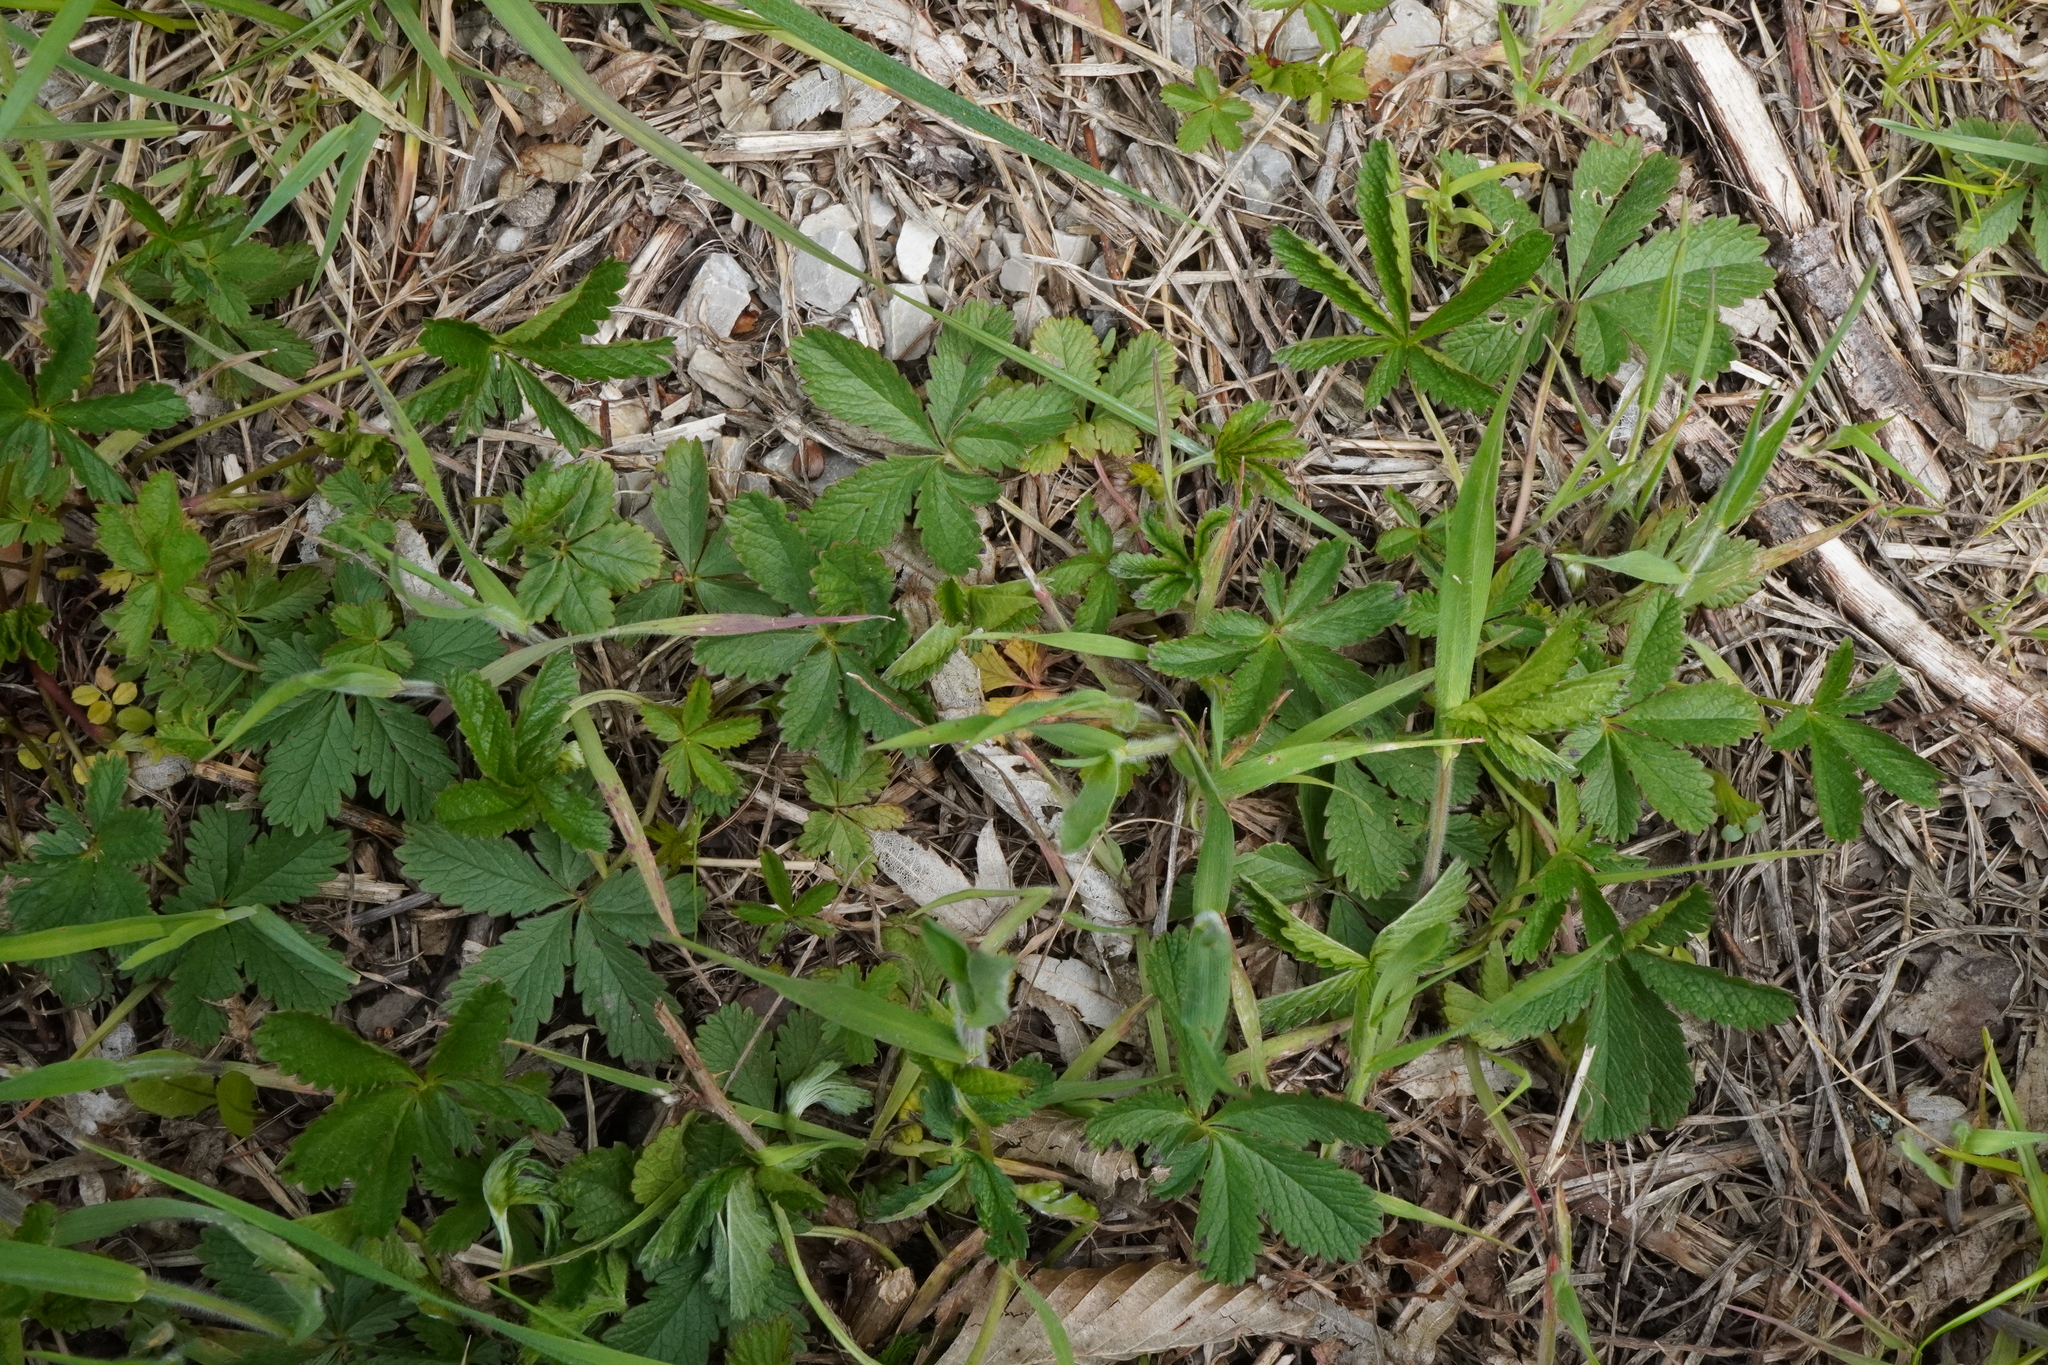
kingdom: Plantae
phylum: Tracheophyta
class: Magnoliopsida
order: Rosales
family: Rosaceae
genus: Potentilla
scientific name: Potentilla reptans
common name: Creeping cinquefoil
